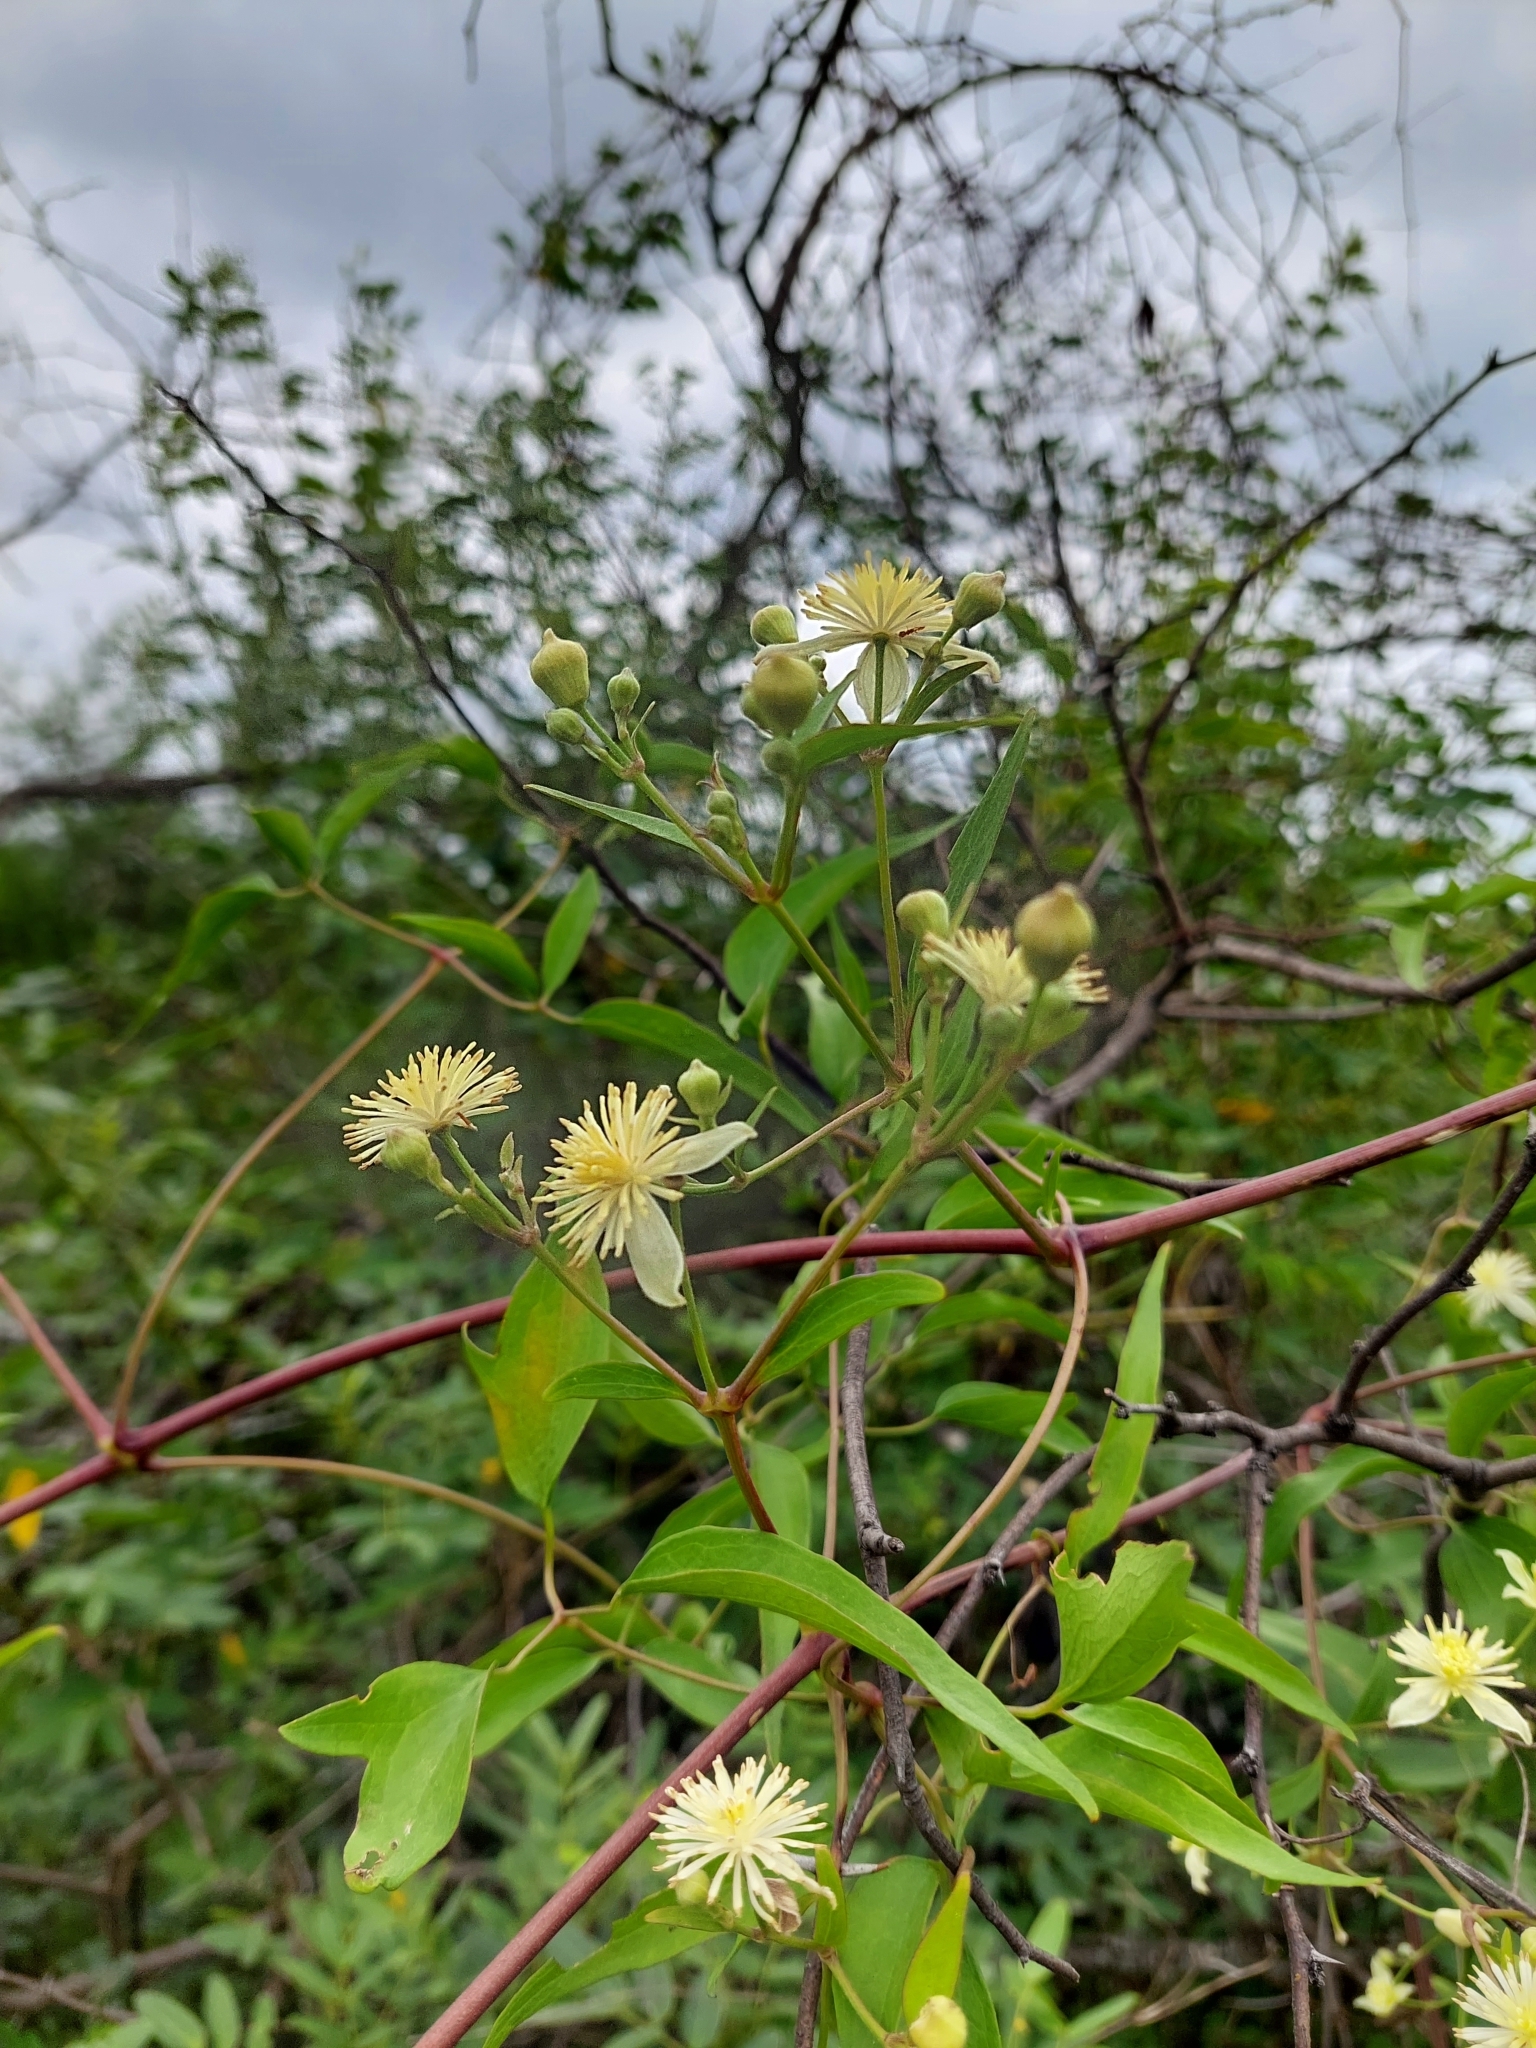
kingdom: Plantae
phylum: Tracheophyta
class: Magnoliopsida
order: Ranunculales
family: Ranunculaceae
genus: Clematis
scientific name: Clematis montevidensis
